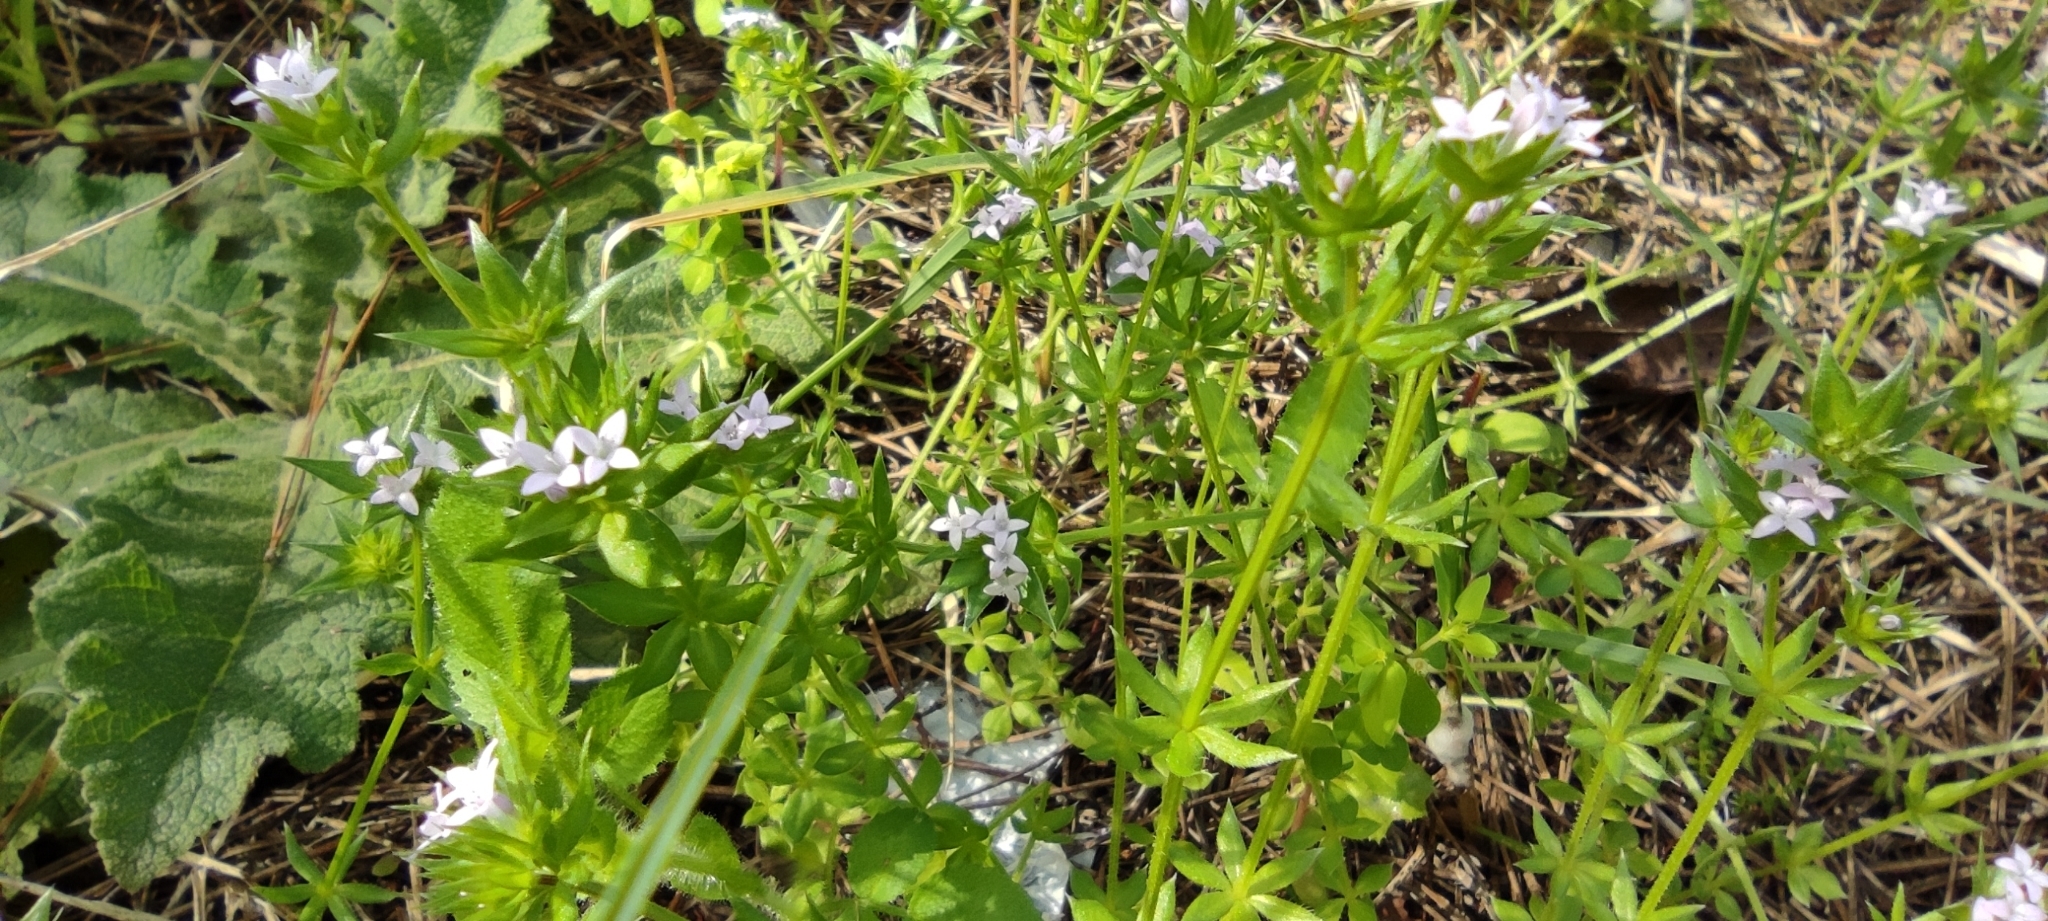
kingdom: Plantae
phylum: Tracheophyta
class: Magnoliopsida
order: Gentianales
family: Rubiaceae
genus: Sherardia
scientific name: Sherardia arvensis
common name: Field madder
